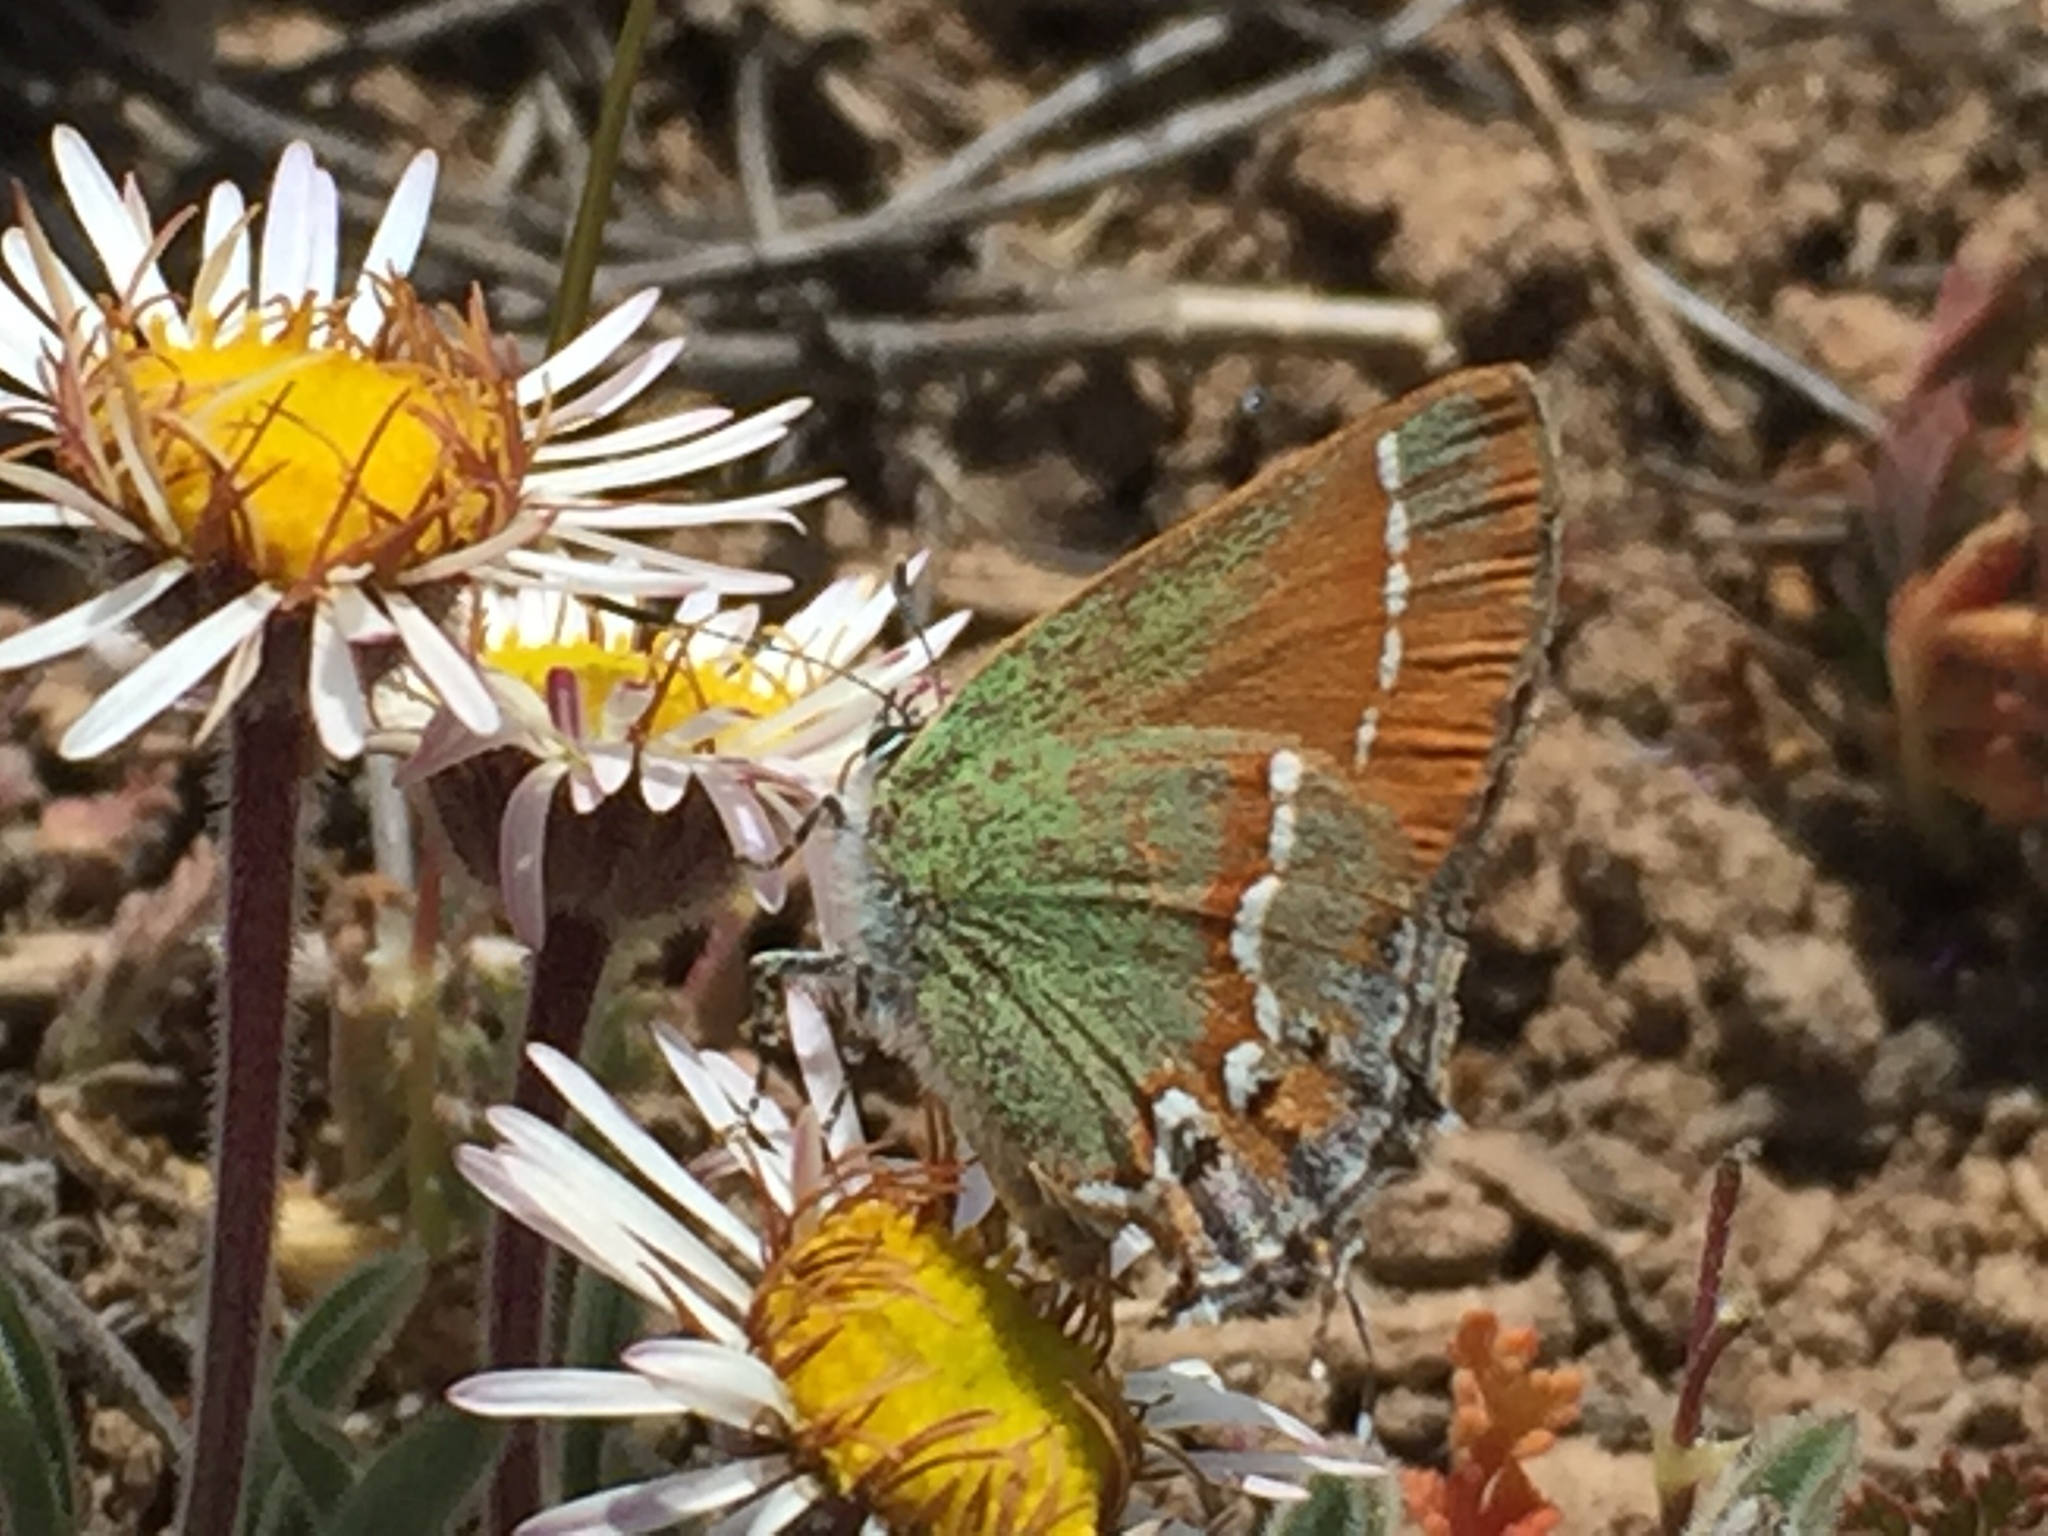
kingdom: Animalia
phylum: Arthropoda
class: Insecta
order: Lepidoptera
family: Lycaenidae
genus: Mitoura
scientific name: Mitoura siva
